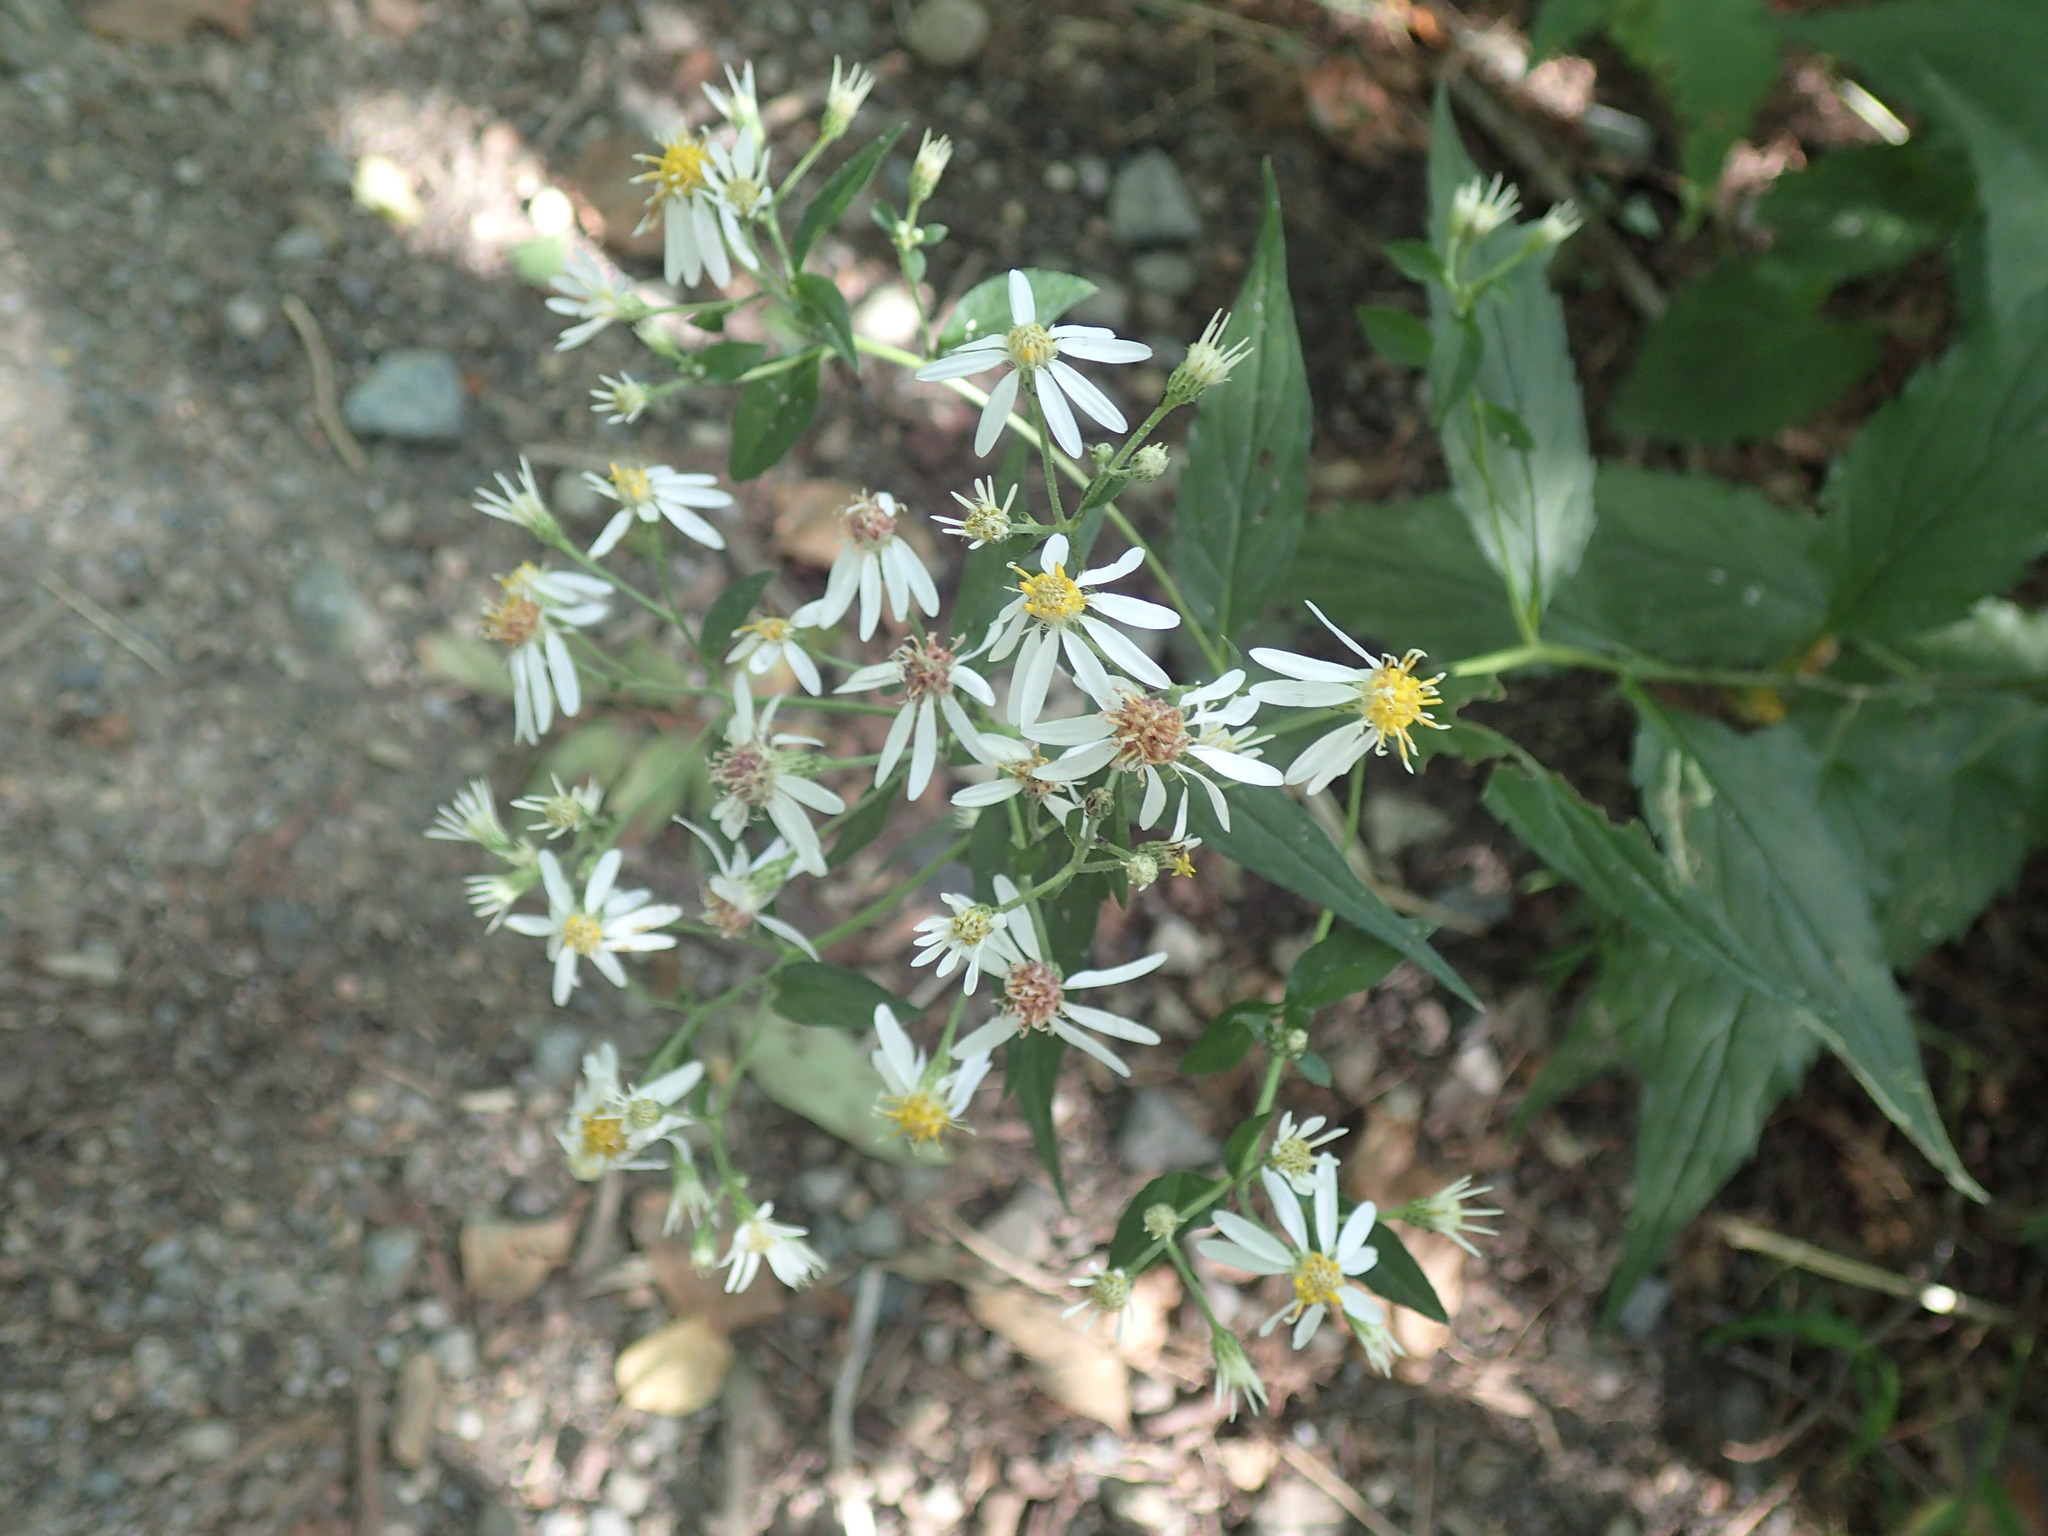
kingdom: Plantae
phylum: Tracheophyta
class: Magnoliopsida
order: Asterales
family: Asteraceae
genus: Eurybia
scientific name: Eurybia divaricata
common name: White wood aster
